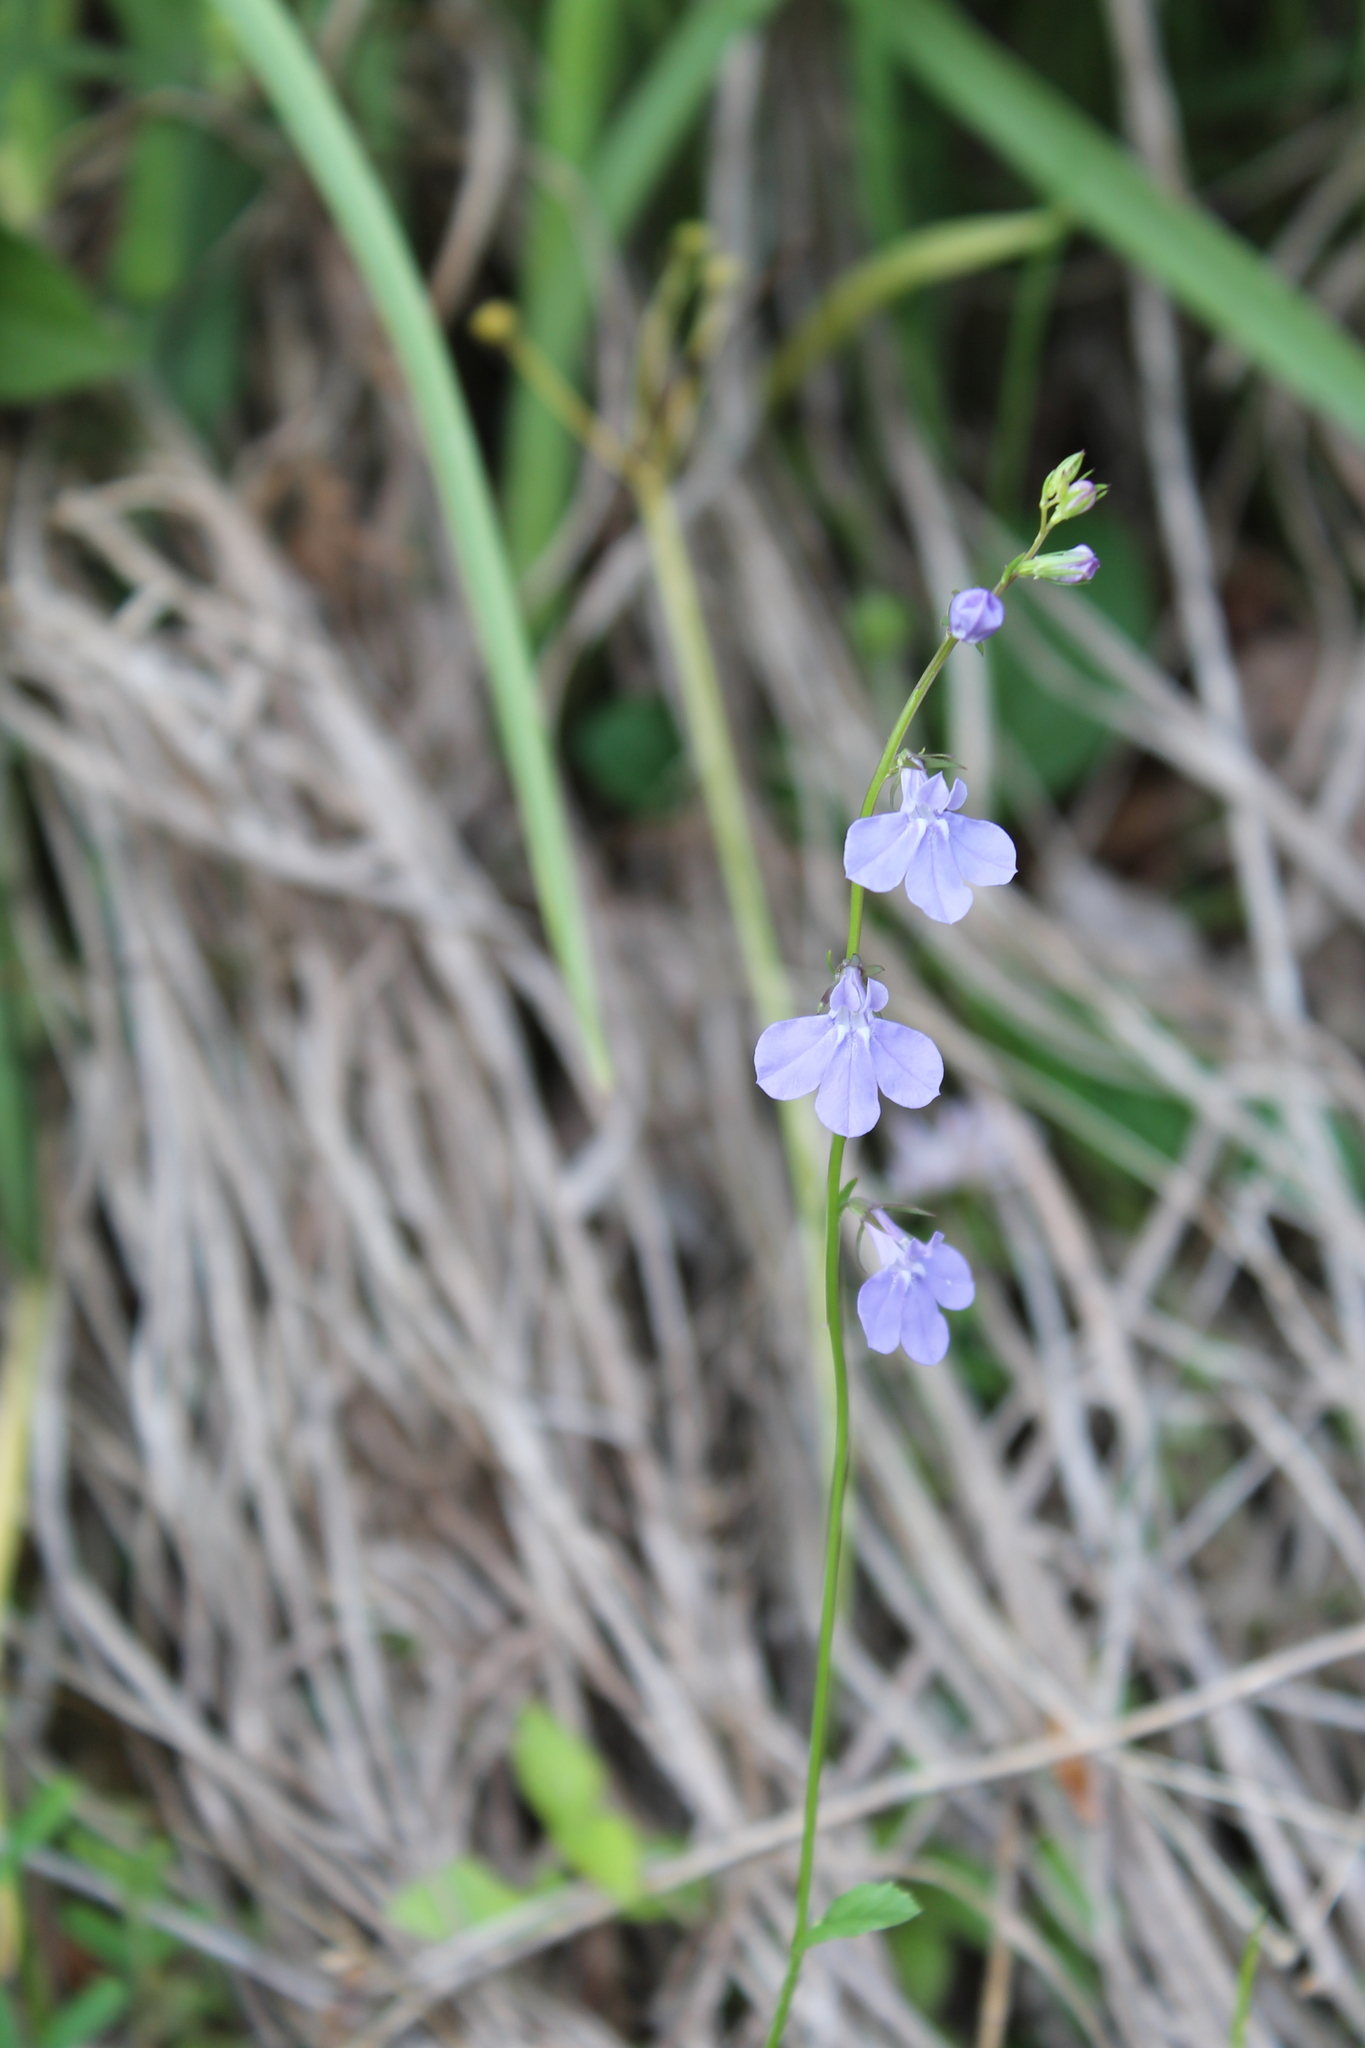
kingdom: Plantae
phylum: Tracheophyta
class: Magnoliopsida
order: Asterales
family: Campanulaceae
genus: Lobelia
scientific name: Lobelia gattingeri
